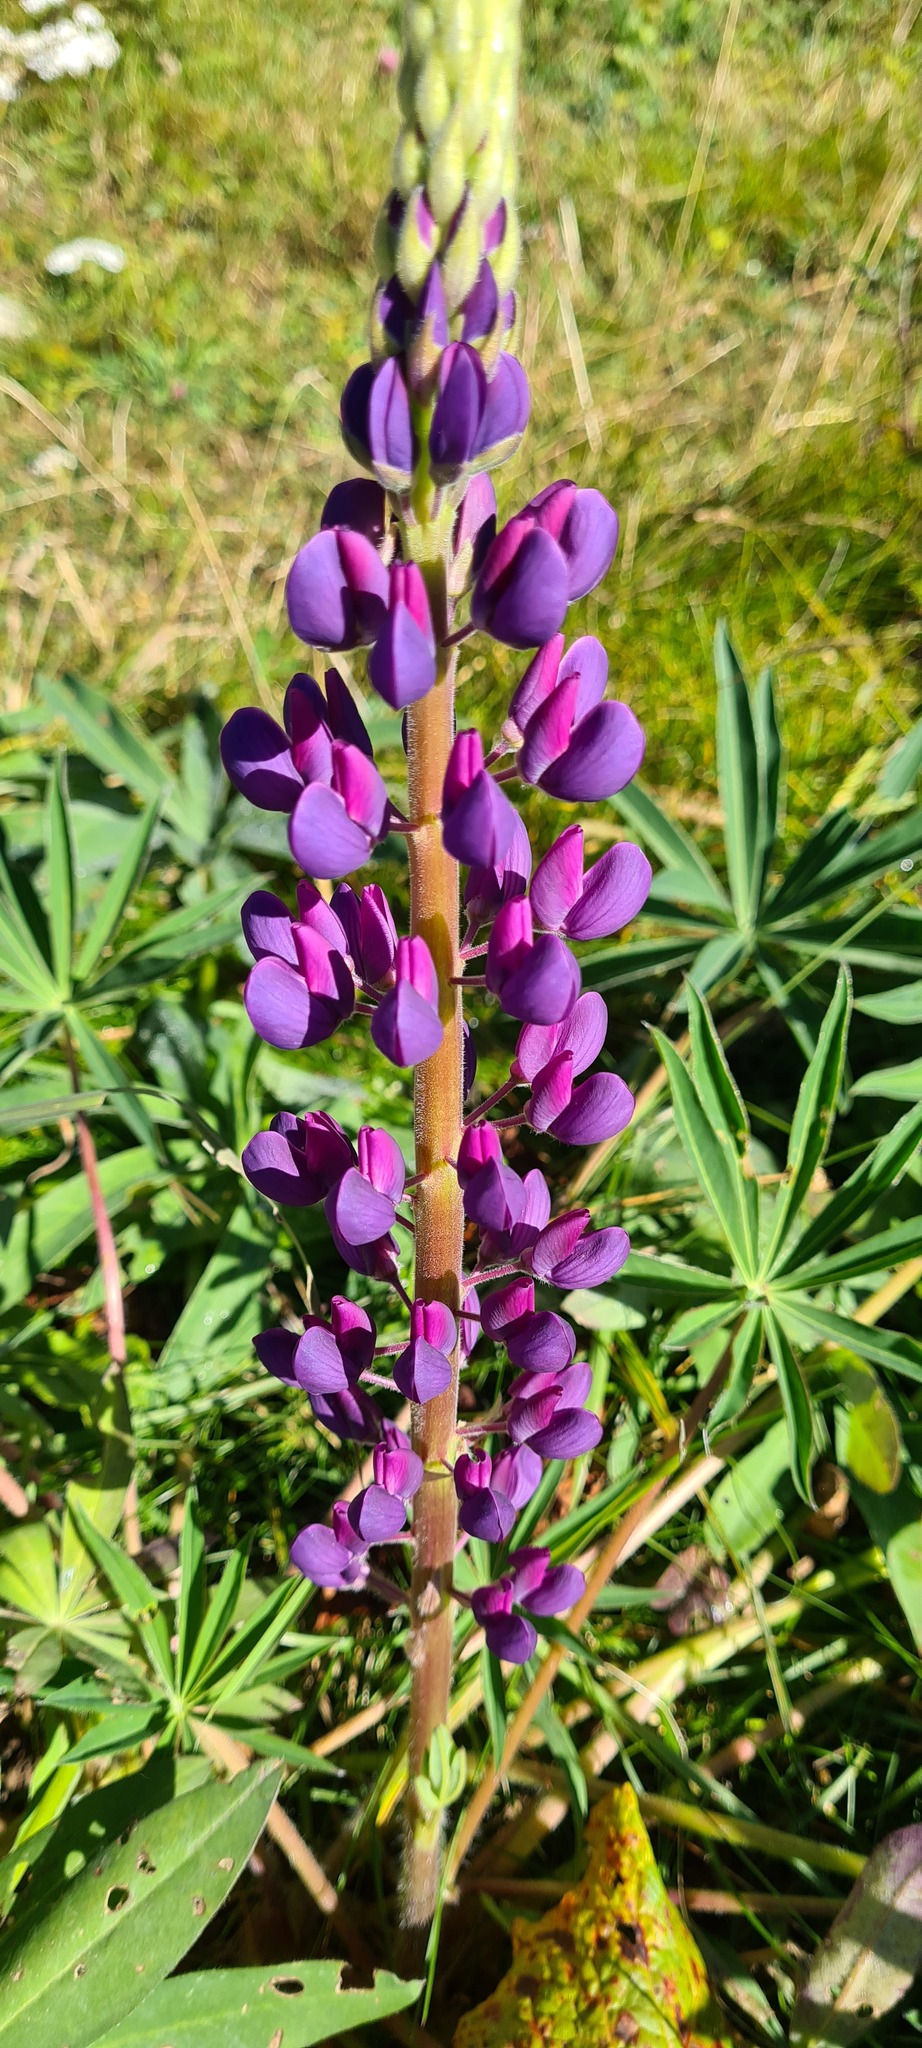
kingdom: Plantae
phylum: Tracheophyta
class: Magnoliopsida
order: Fabales
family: Fabaceae
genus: Lupinus
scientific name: Lupinus polyphyllus
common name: Garden lupin
